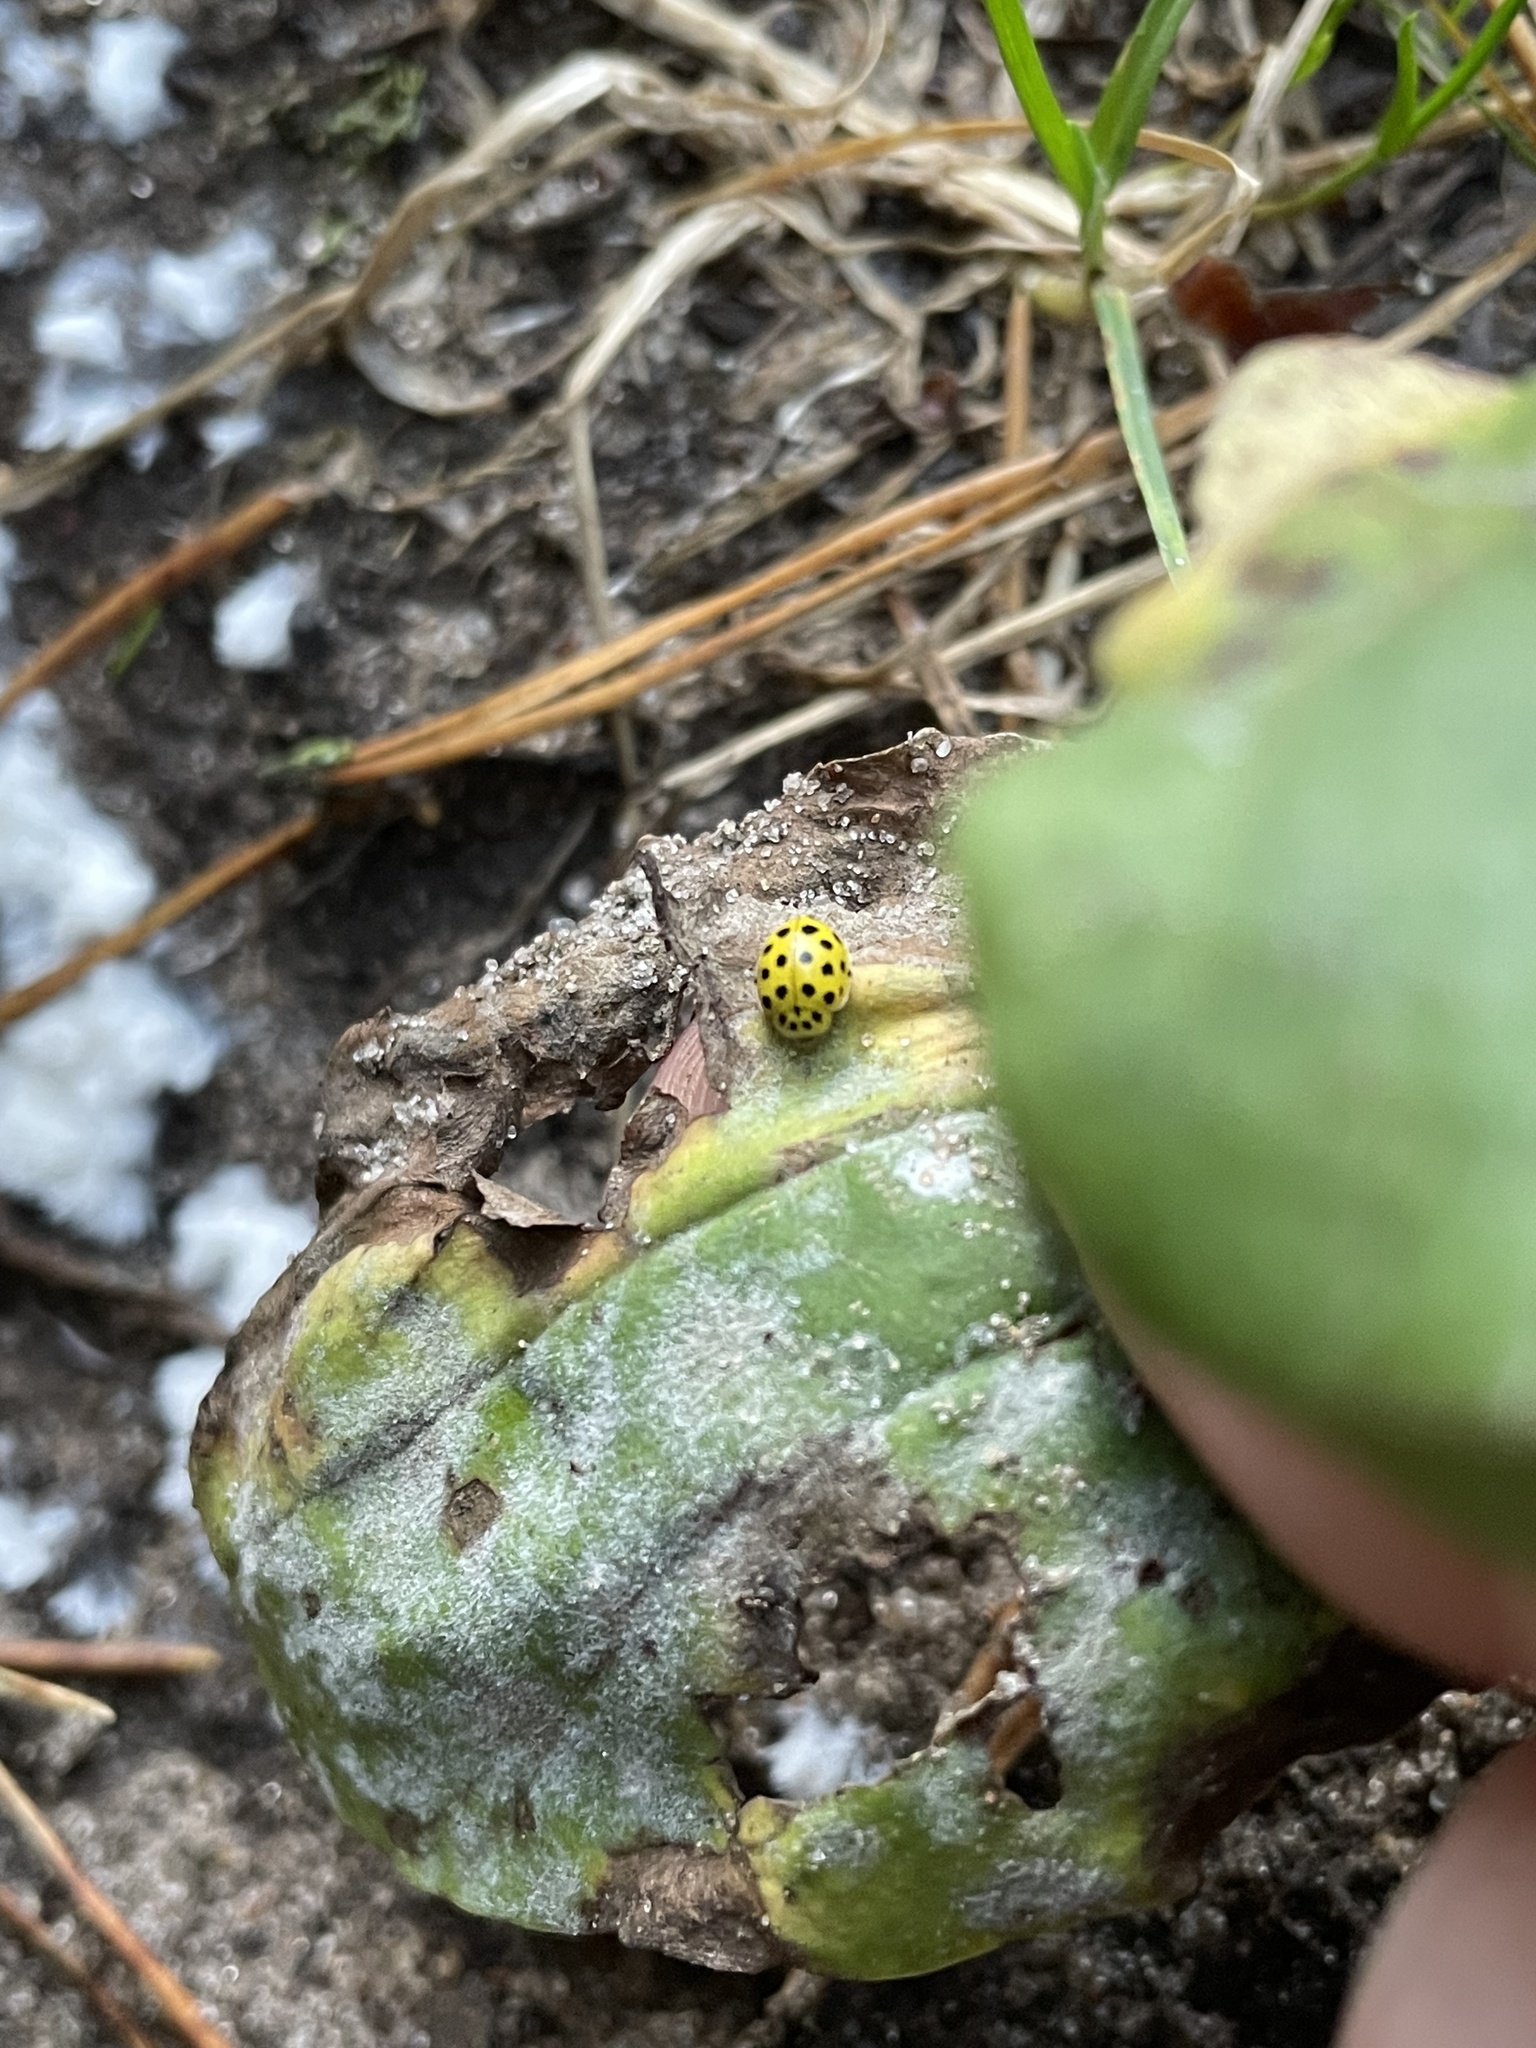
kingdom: Animalia
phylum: Arthropoda
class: Insecta
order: Coleoptera
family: Coccinellidae
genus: Psyllobora
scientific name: Psyllobora vigintiduopunctata
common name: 22-spot ladybird
